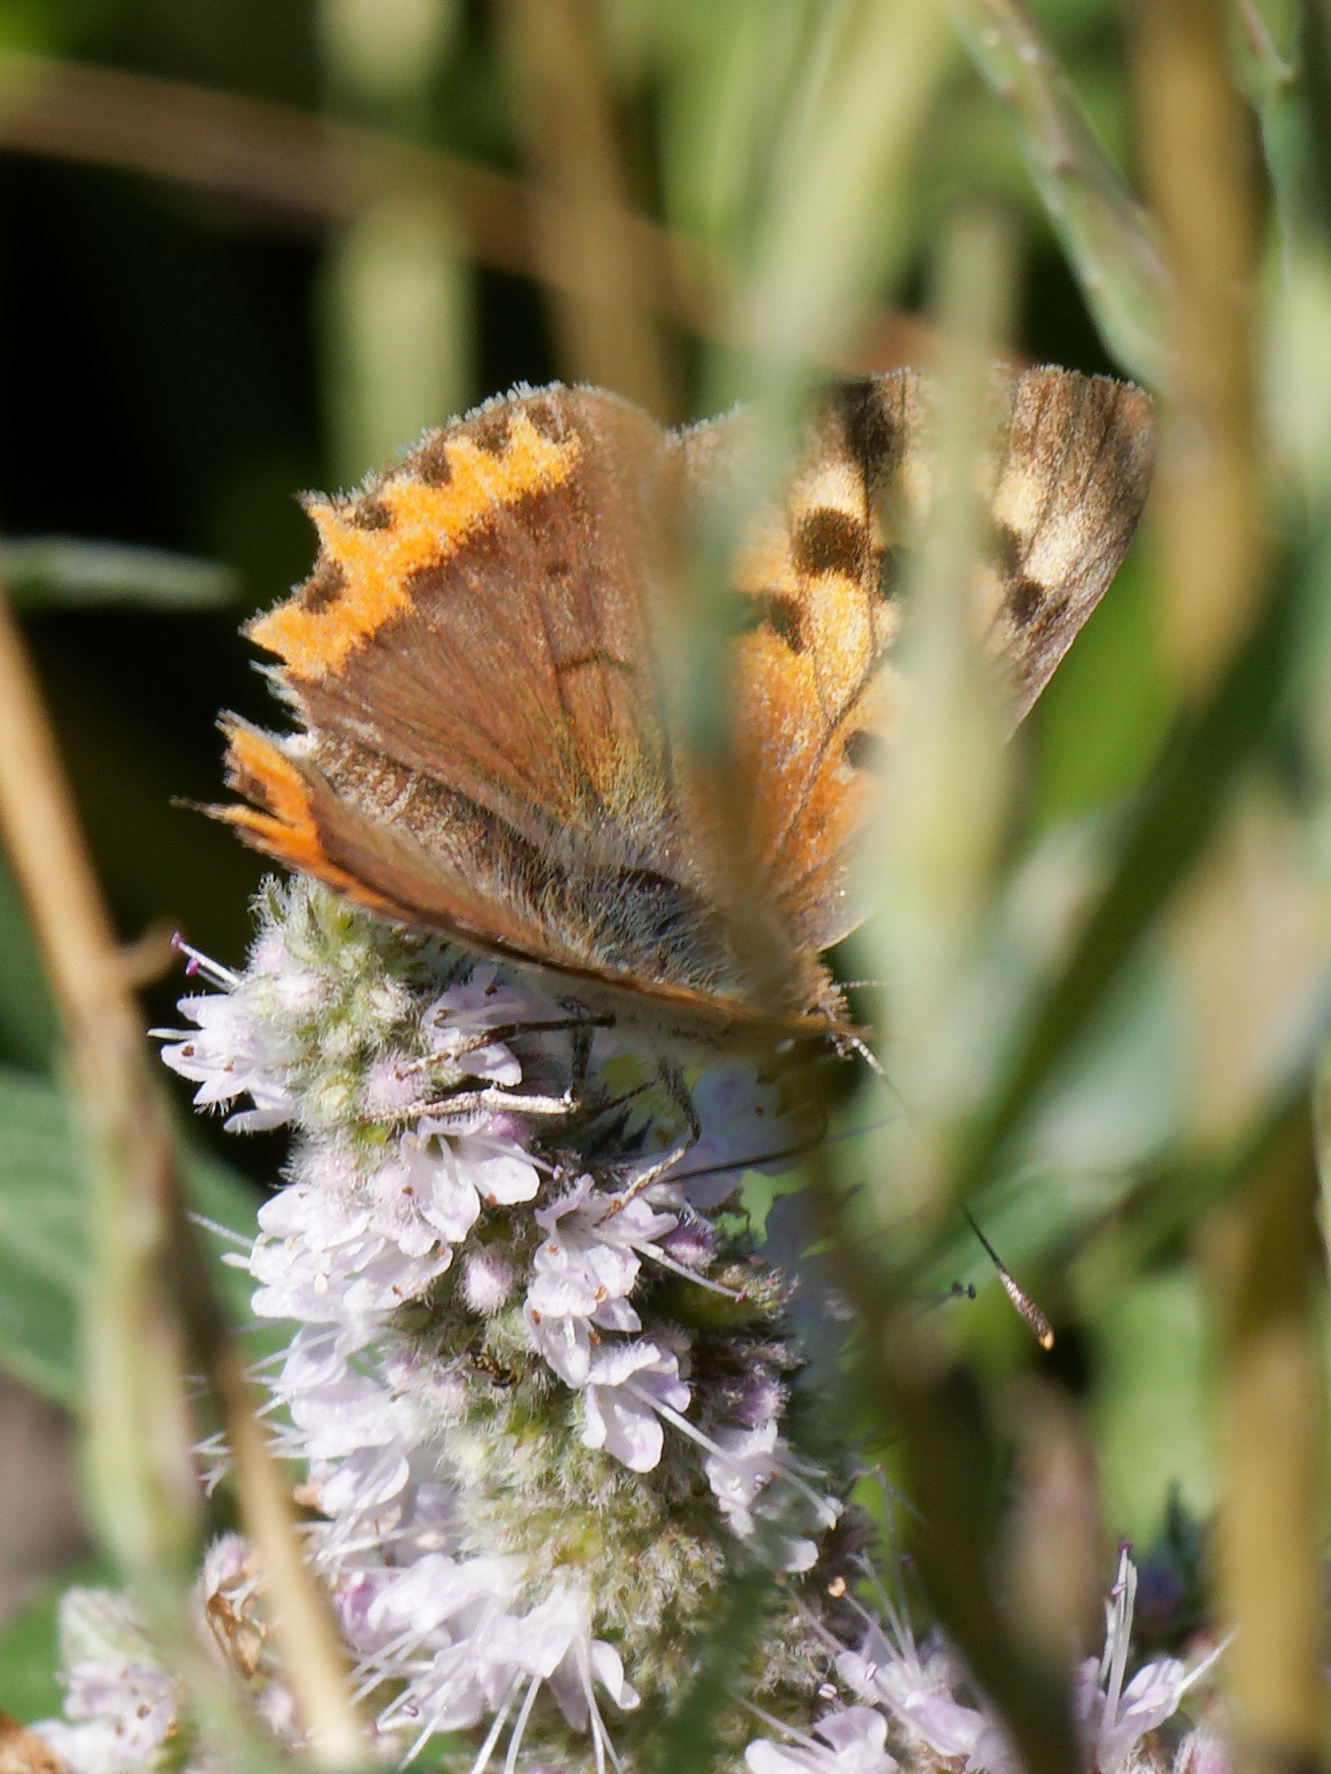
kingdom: Animalia
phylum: Arthropoda
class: Insecta
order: Lepidoptera
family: Lycaenidae
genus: Lycaena
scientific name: Lycaena phlaeas
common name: Small copper
